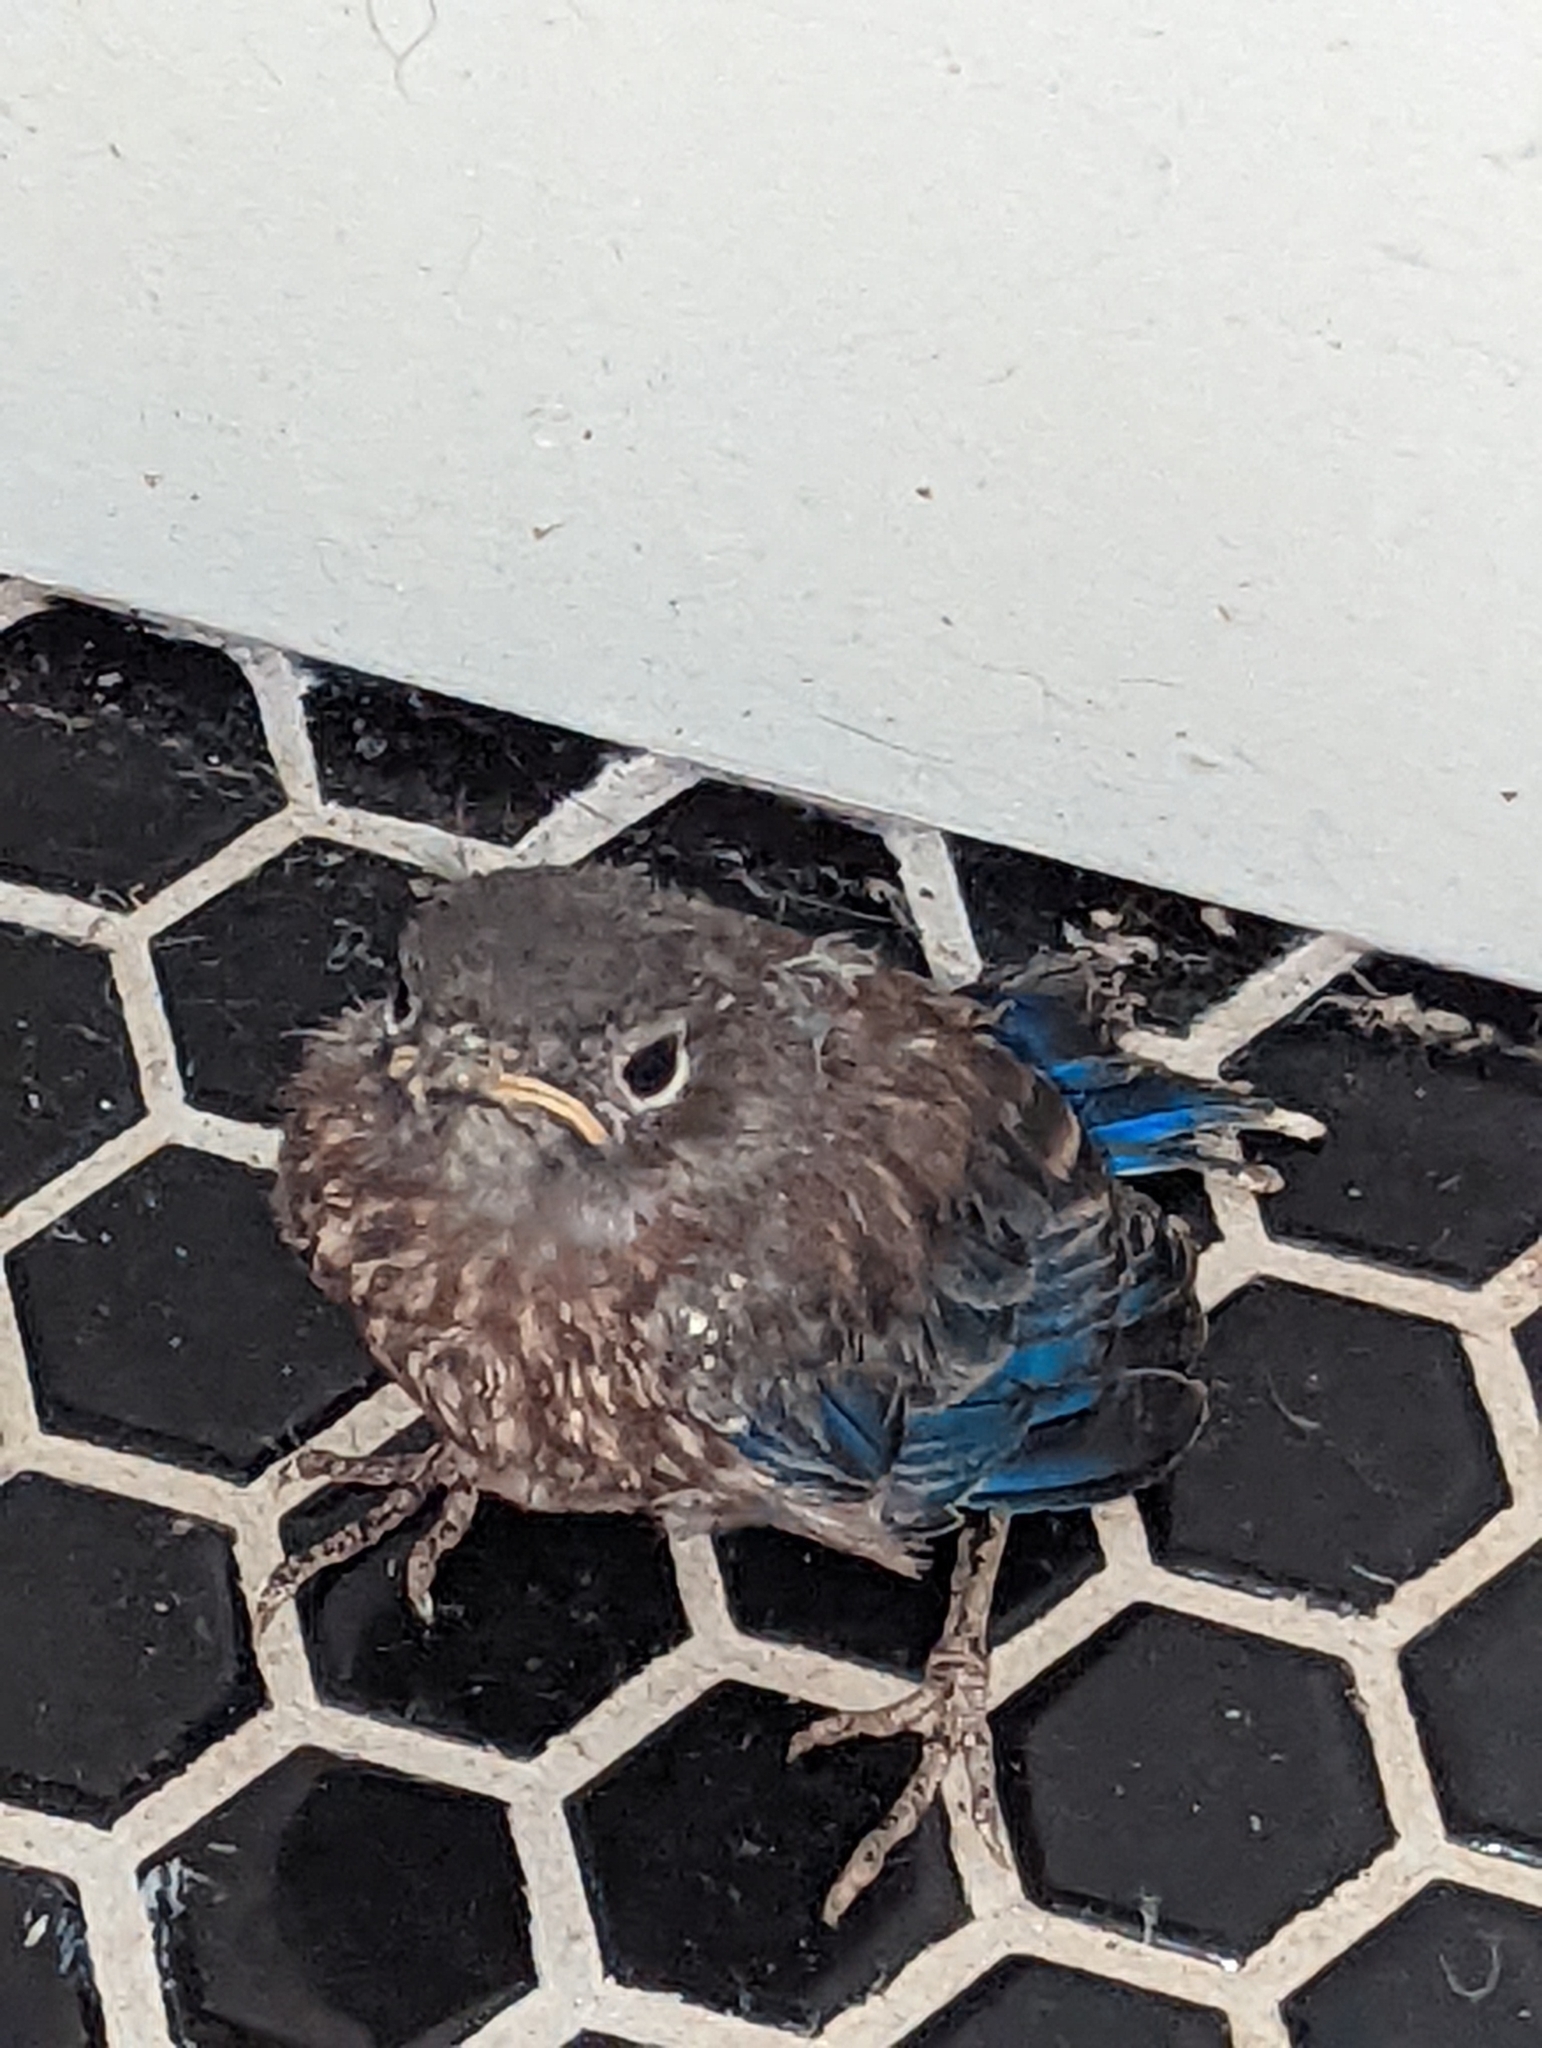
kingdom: Animalia
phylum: Chordata
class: Aves
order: Passeriformes
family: Turdidae
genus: Sialia
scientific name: Sialia mexicana
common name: Western bluebird
